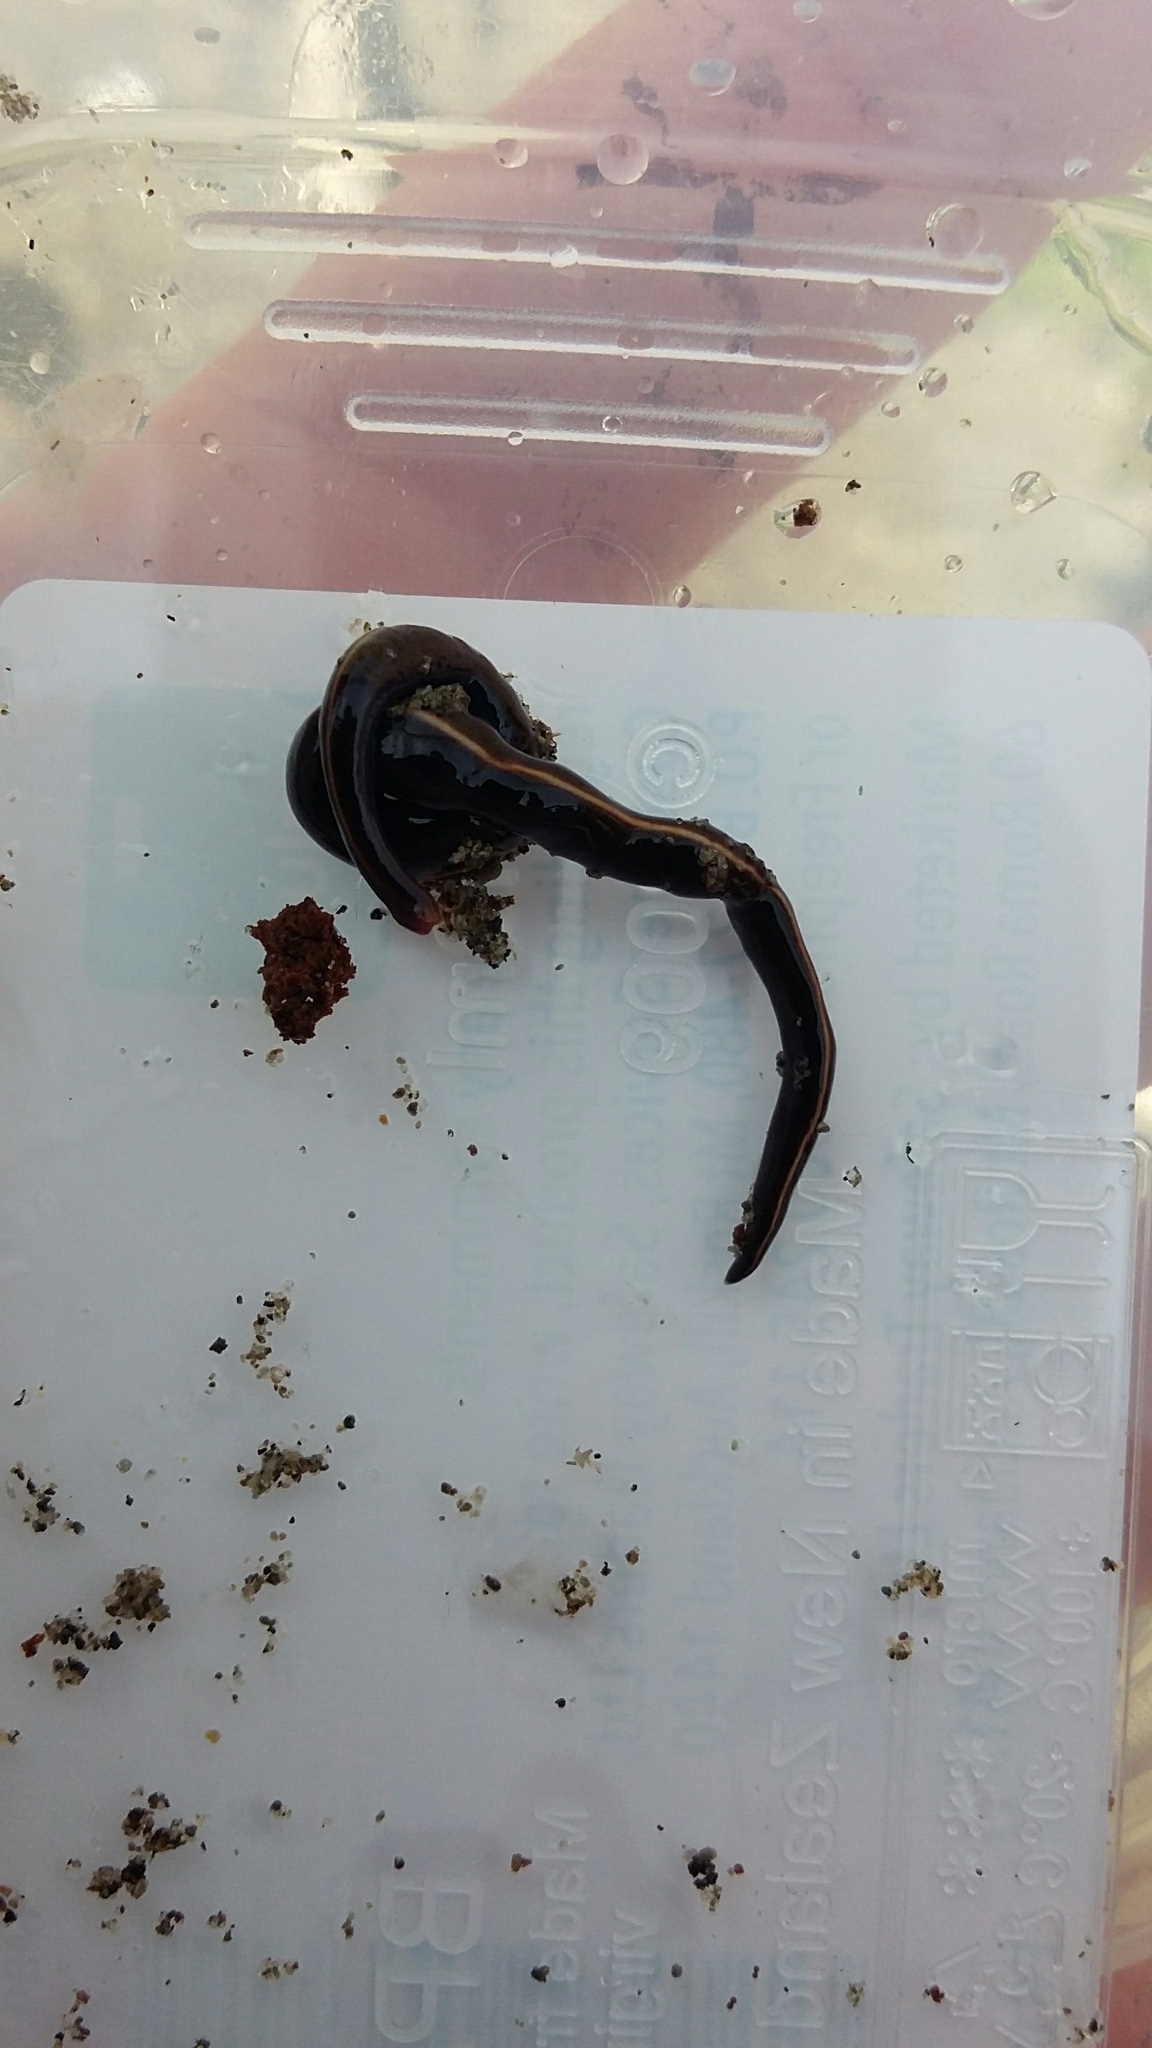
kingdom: Animalia
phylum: Platyhelminthes
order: Tricladida
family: Geoplanidae
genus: Caenoplana
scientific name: Caenoplana coerulea
